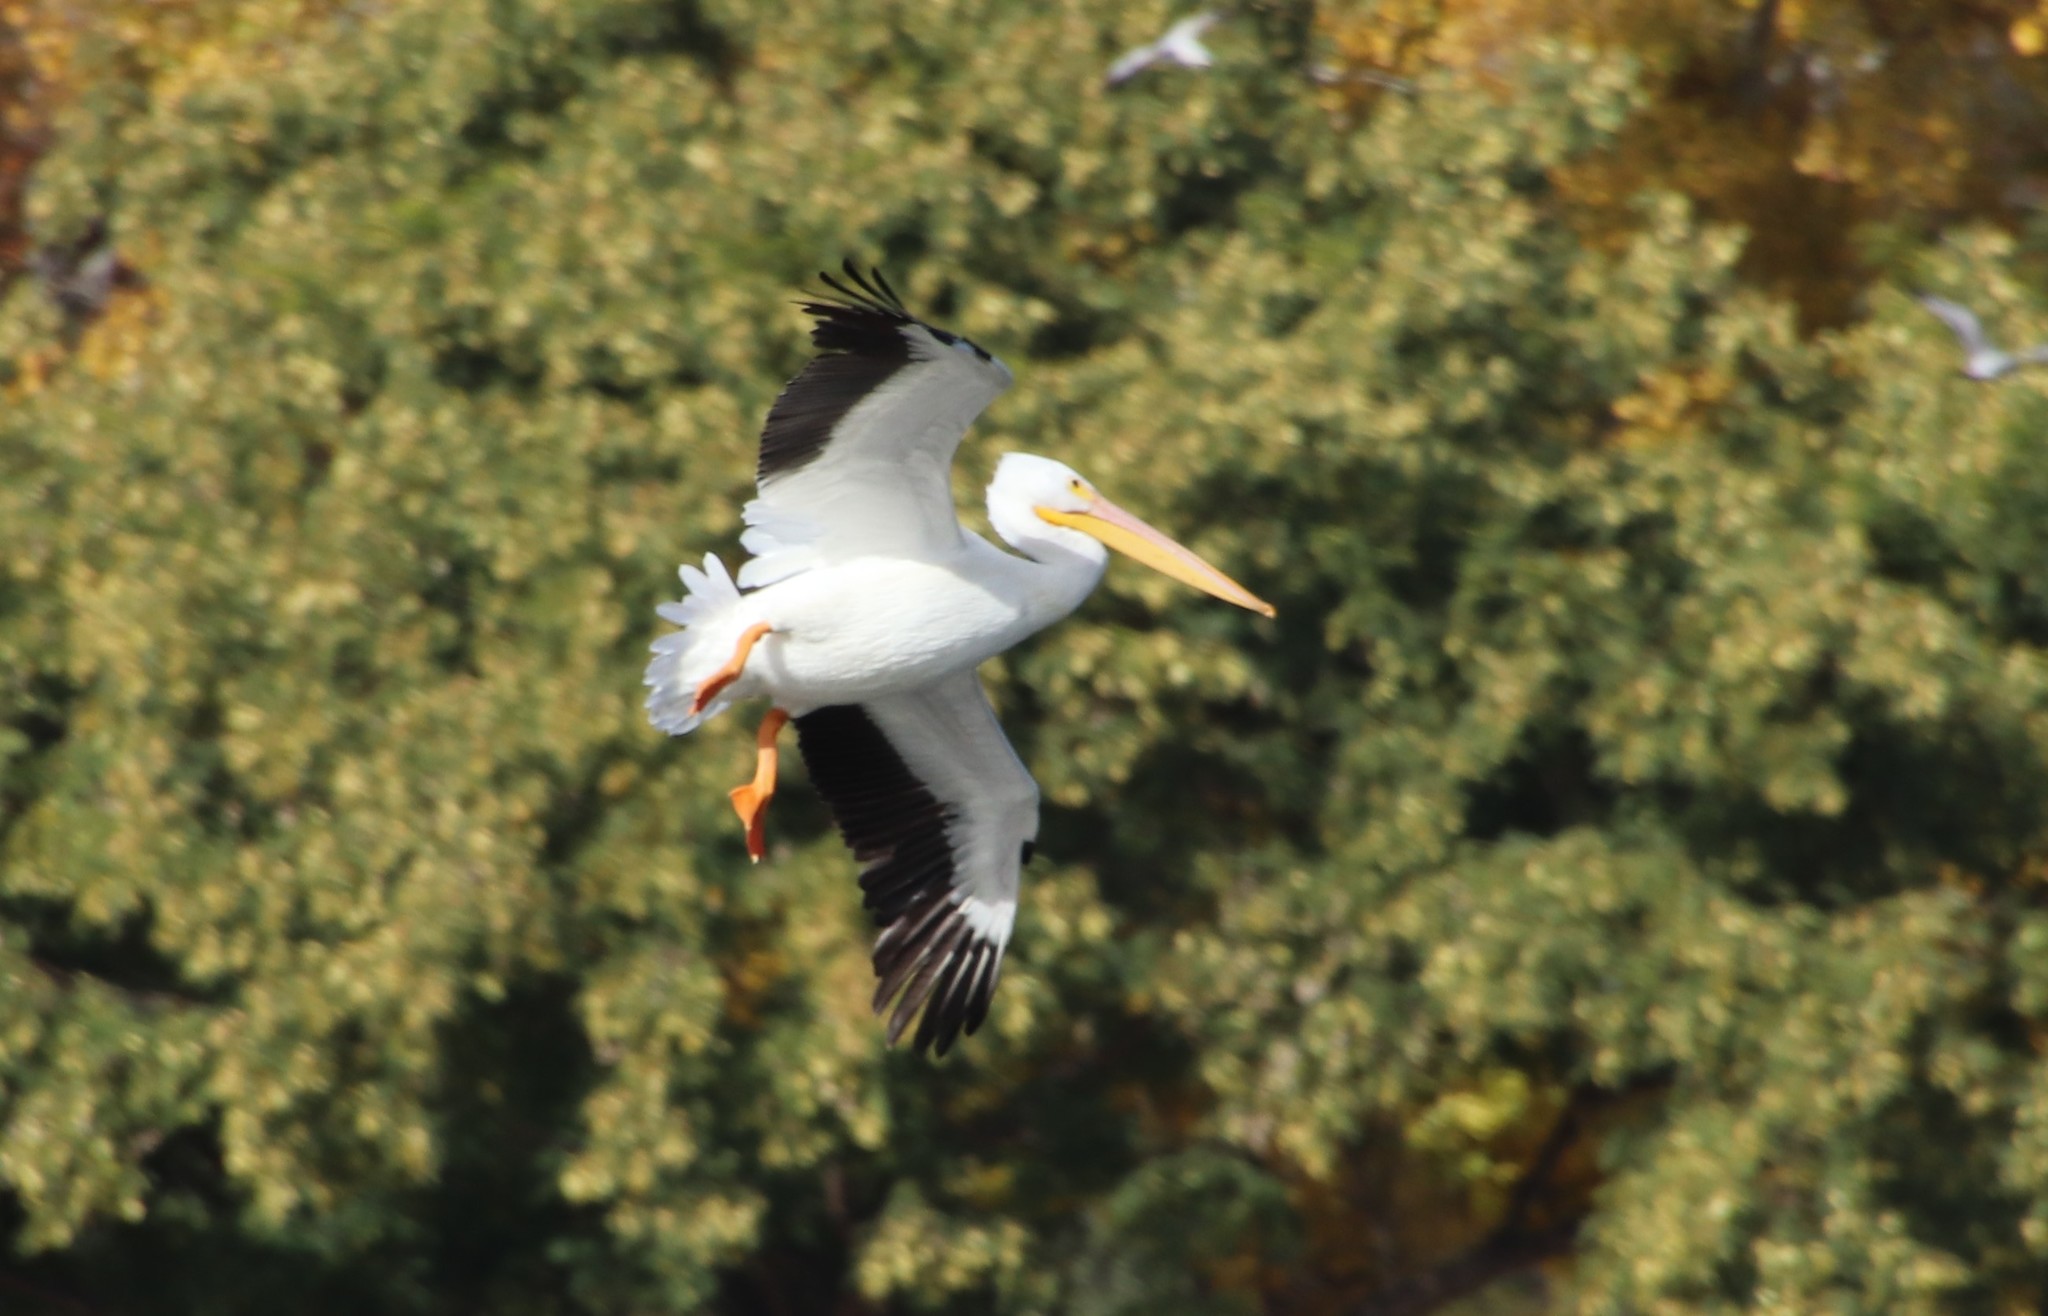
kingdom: Animalia
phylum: Chordata
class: Aves
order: Pelecaniformes
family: Pelecanidae
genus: Pelecanus
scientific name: Pelecanus erythrorhynchos
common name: American white pelican
